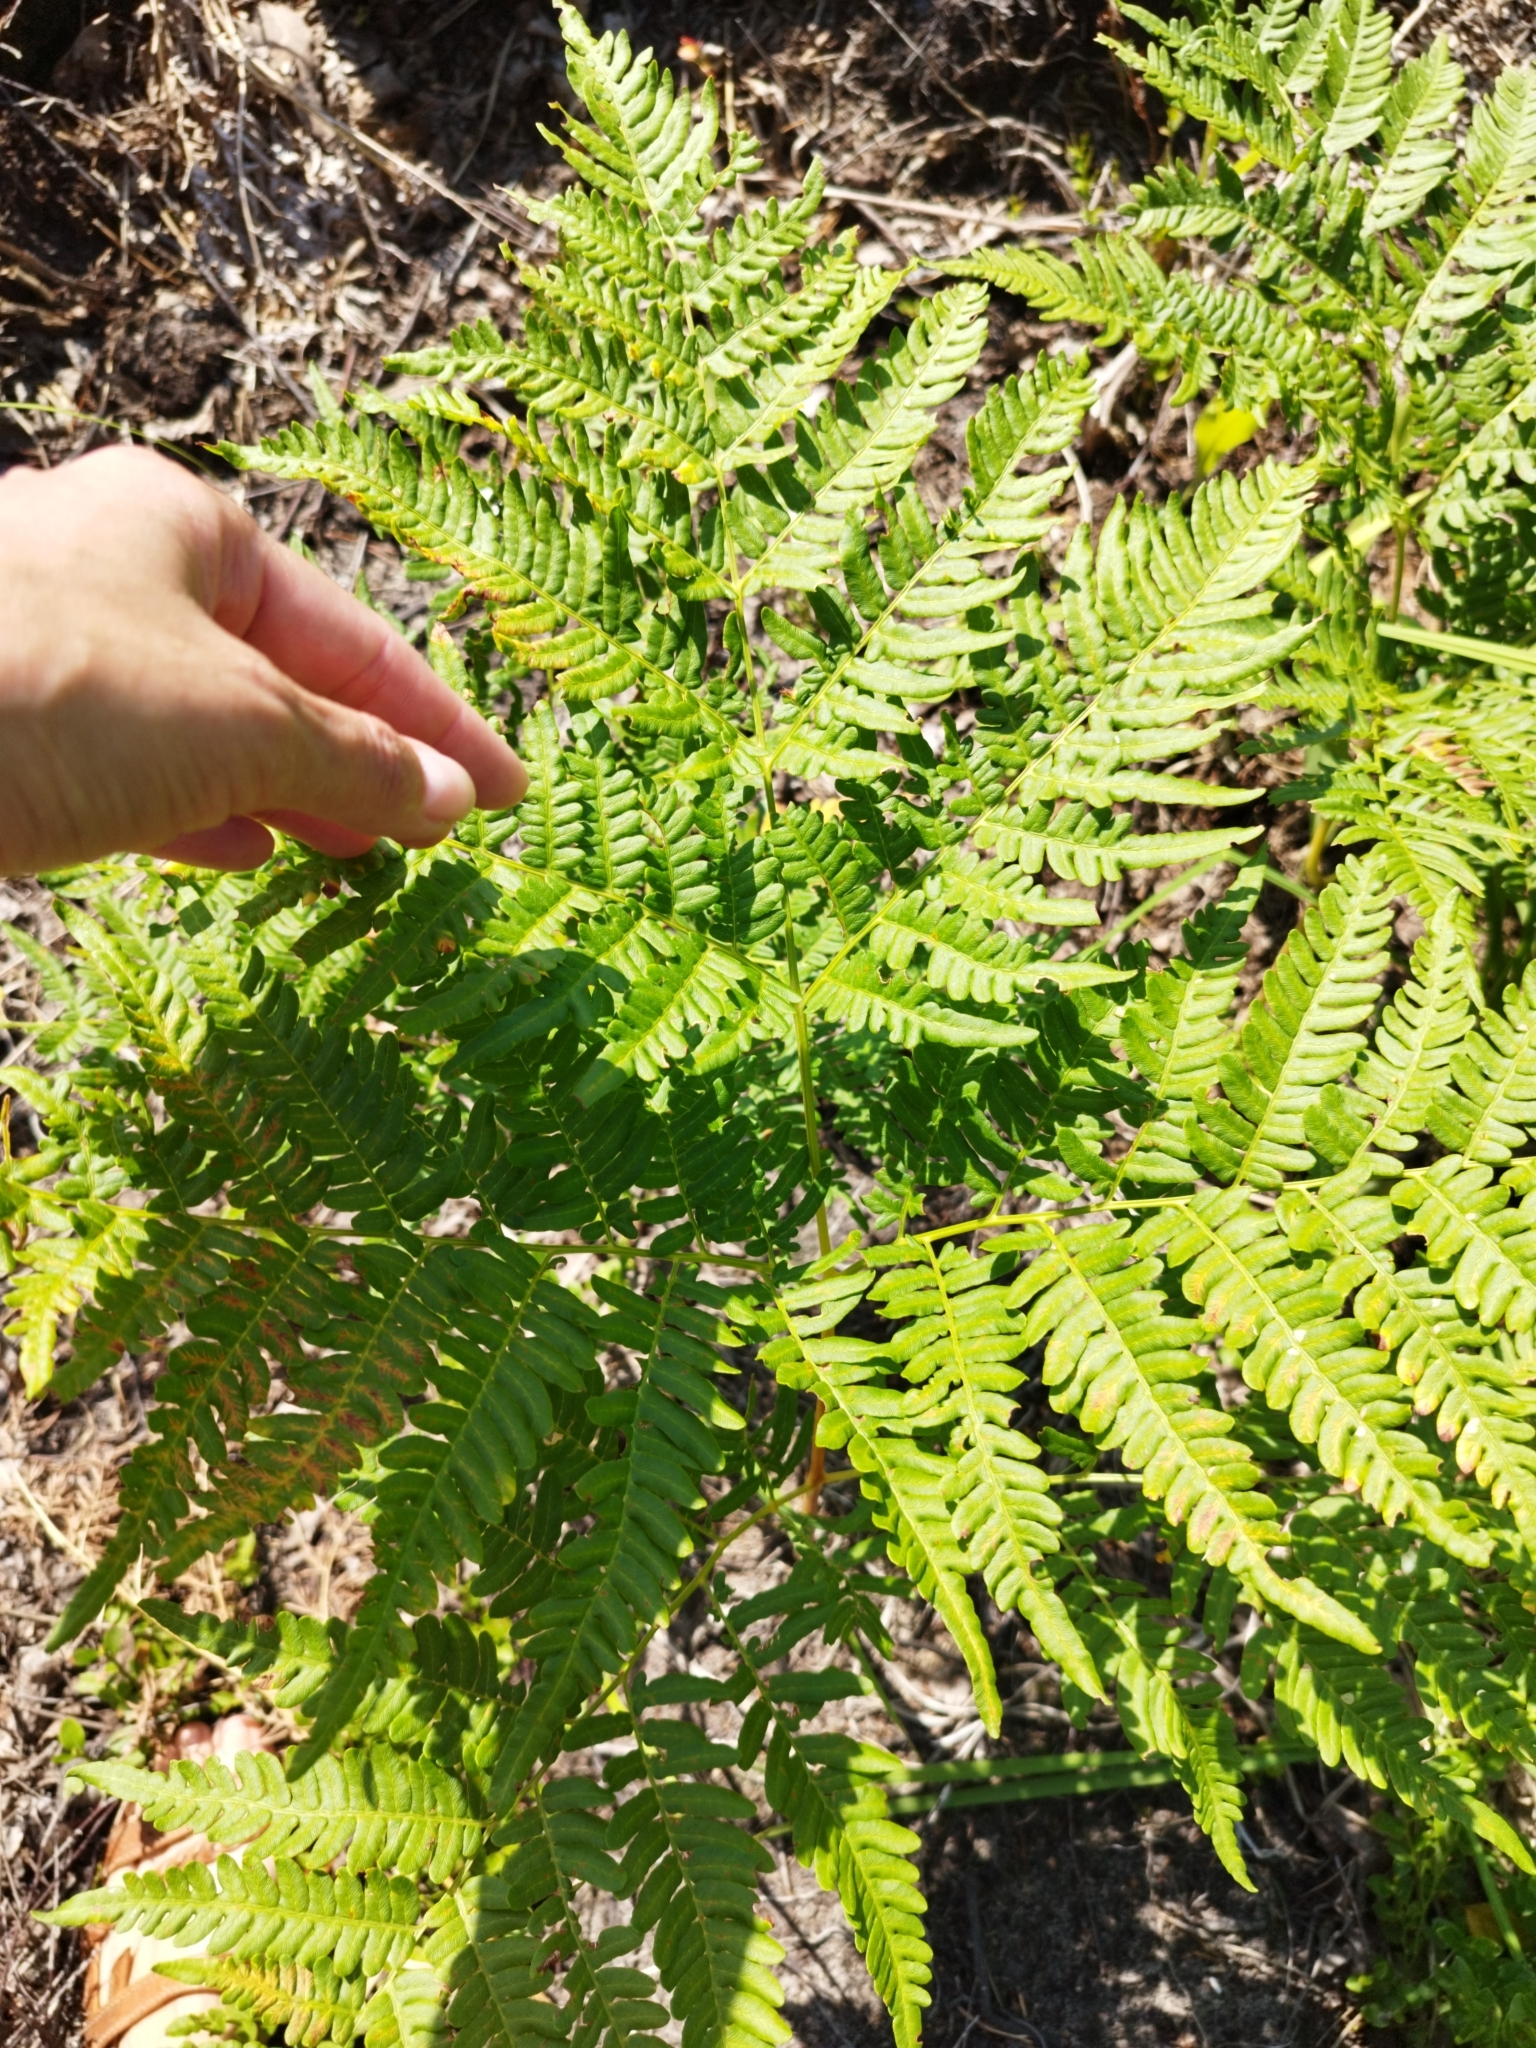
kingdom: Plantae
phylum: Tracheophyta
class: Polypodiopsida
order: Polypodiales
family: Dennstaedtiaceae
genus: Pteridium
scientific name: Pteridium aquilinum
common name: Bracken
